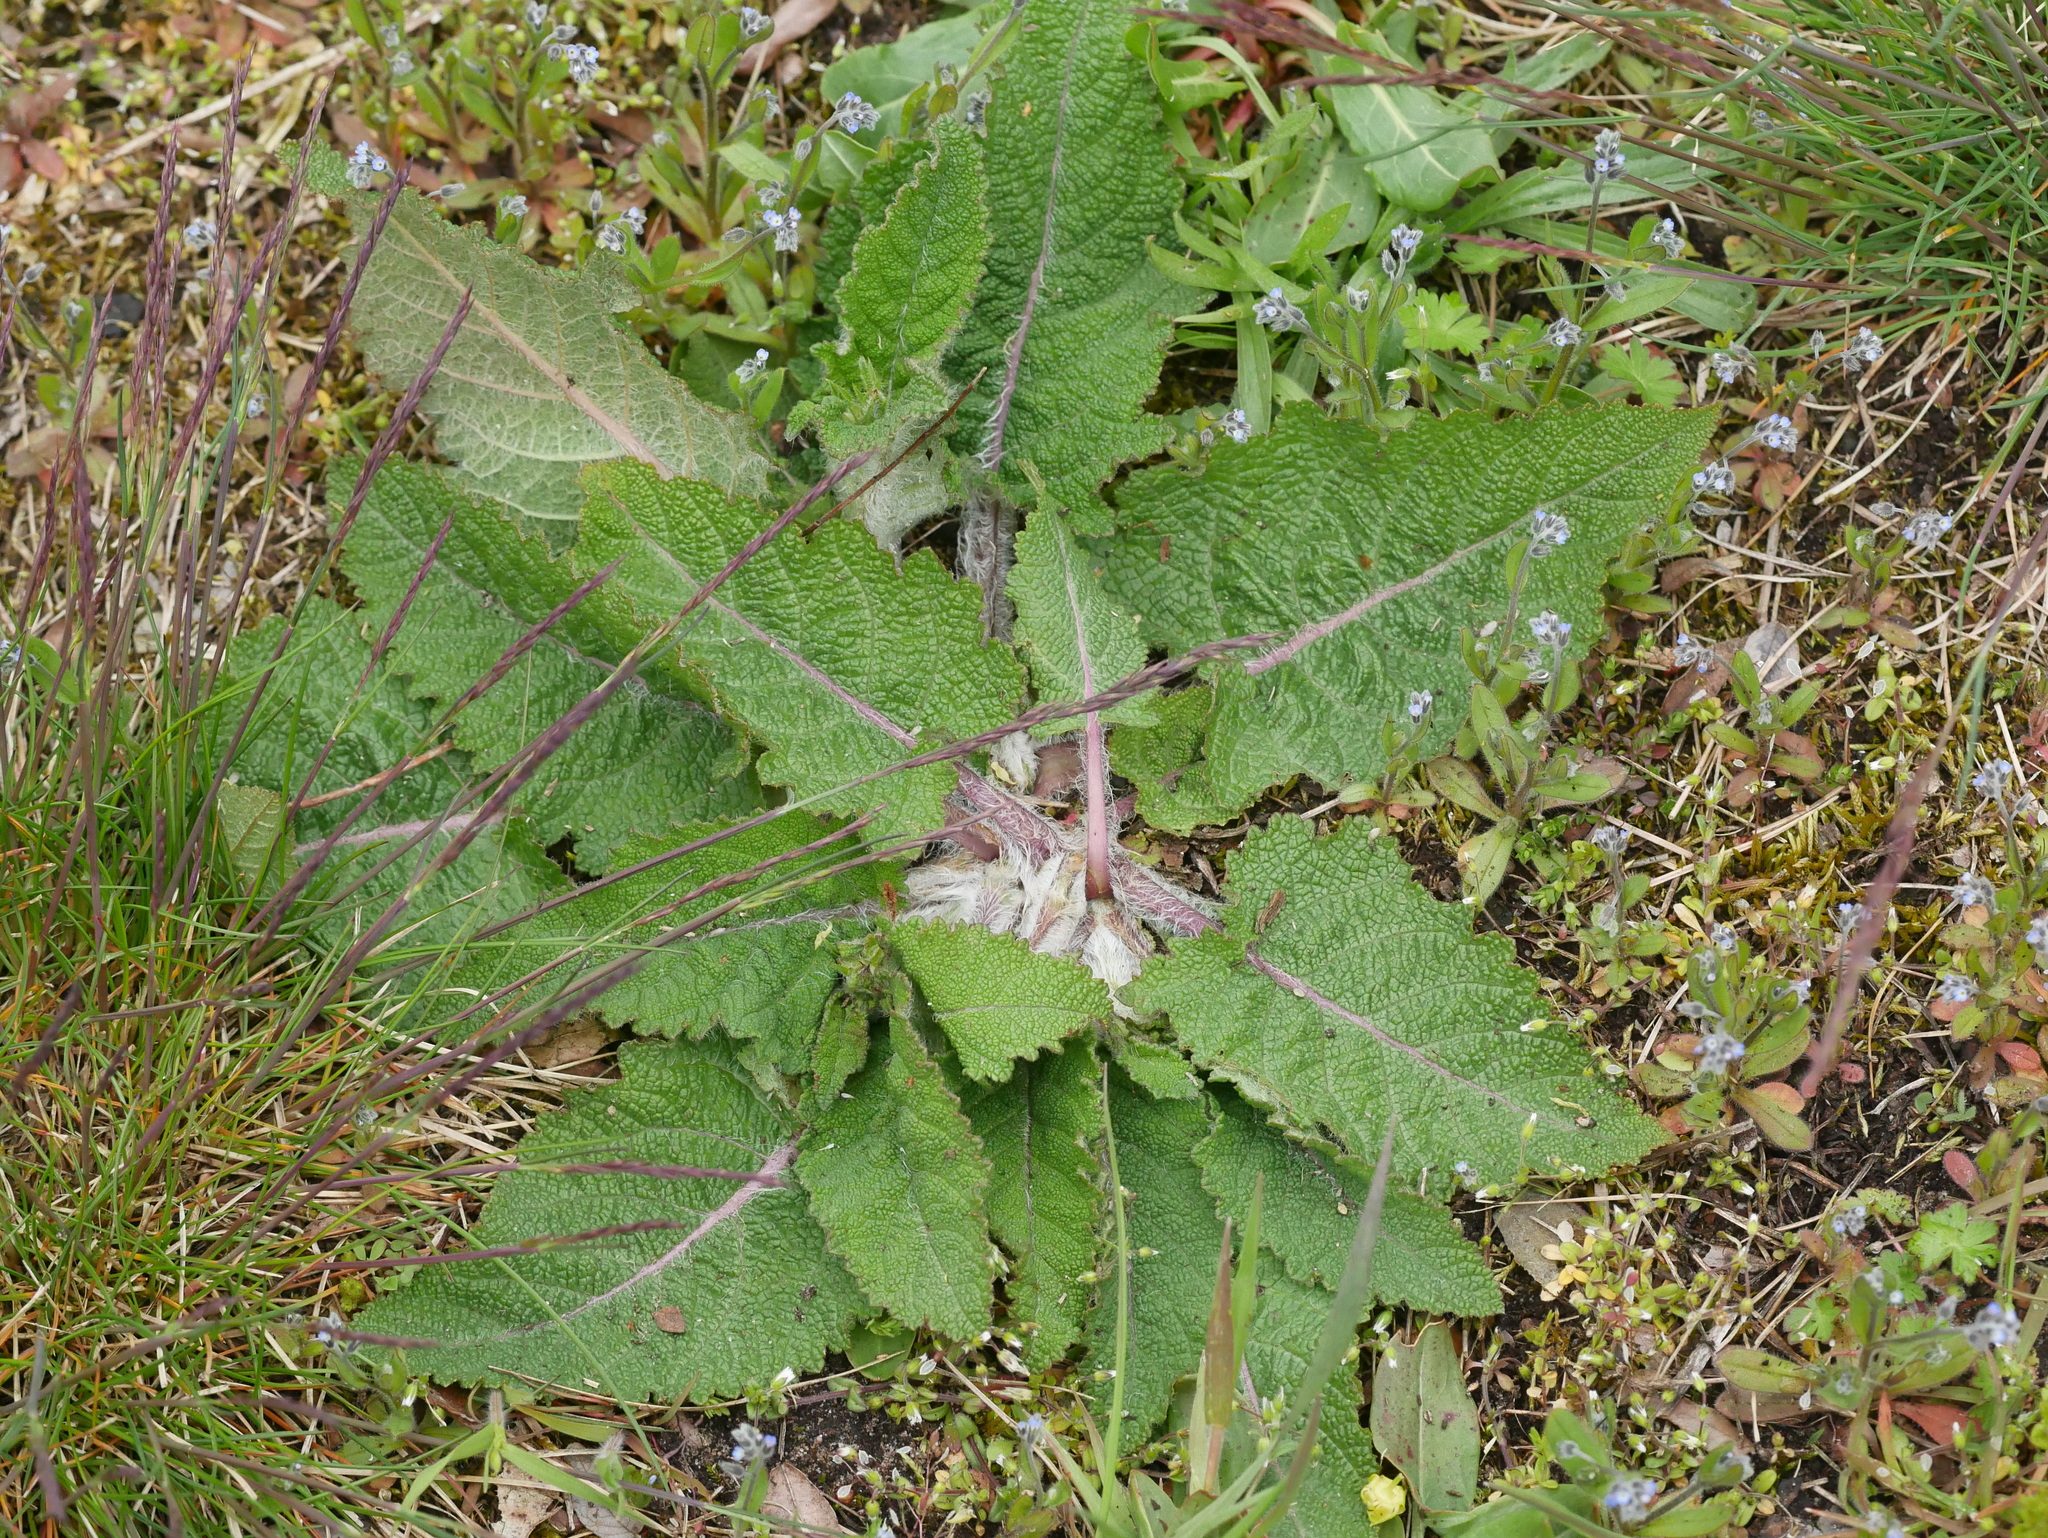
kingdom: Plantae
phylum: Tracheophyta
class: Magnoliopsida
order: Lamiales
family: Lamiaceae
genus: Salvia
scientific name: Salvia pratensis
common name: Meadow sage
